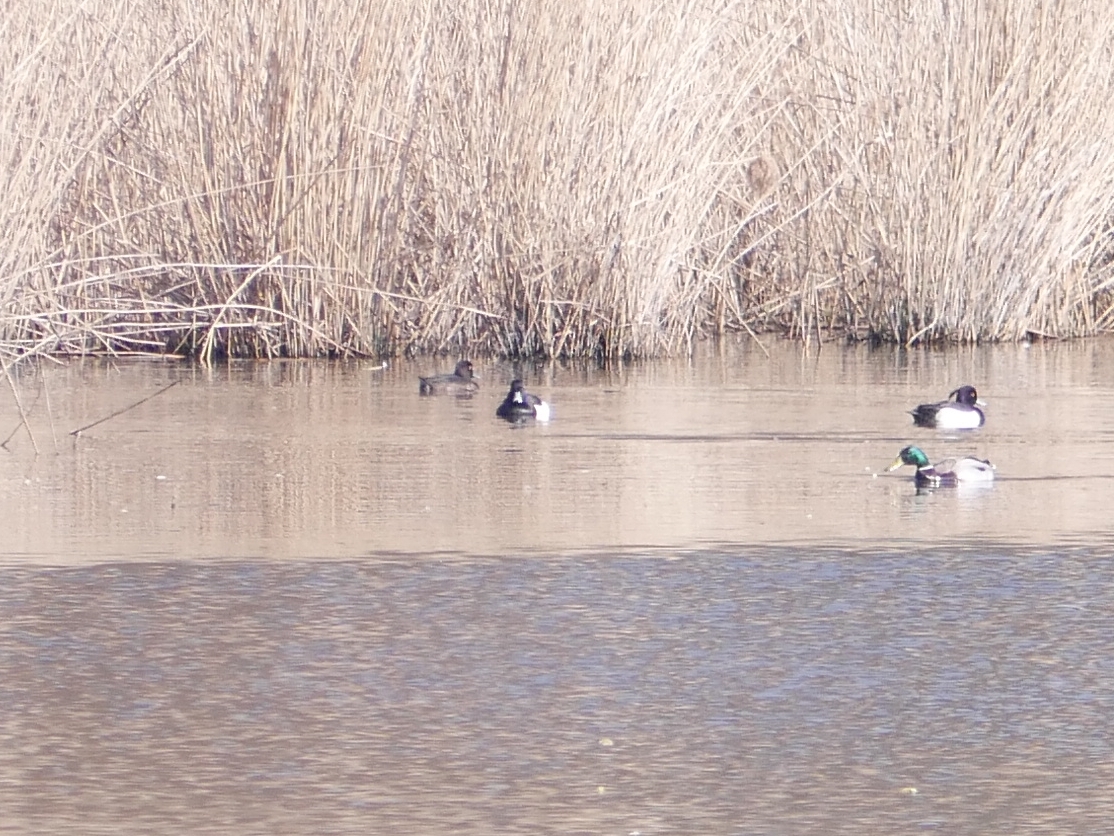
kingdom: Animalia
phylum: Chordata
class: Aves
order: Anseriformes
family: Anatidae
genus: Aythya
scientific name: Aythya fuligula
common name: Tufted duck
